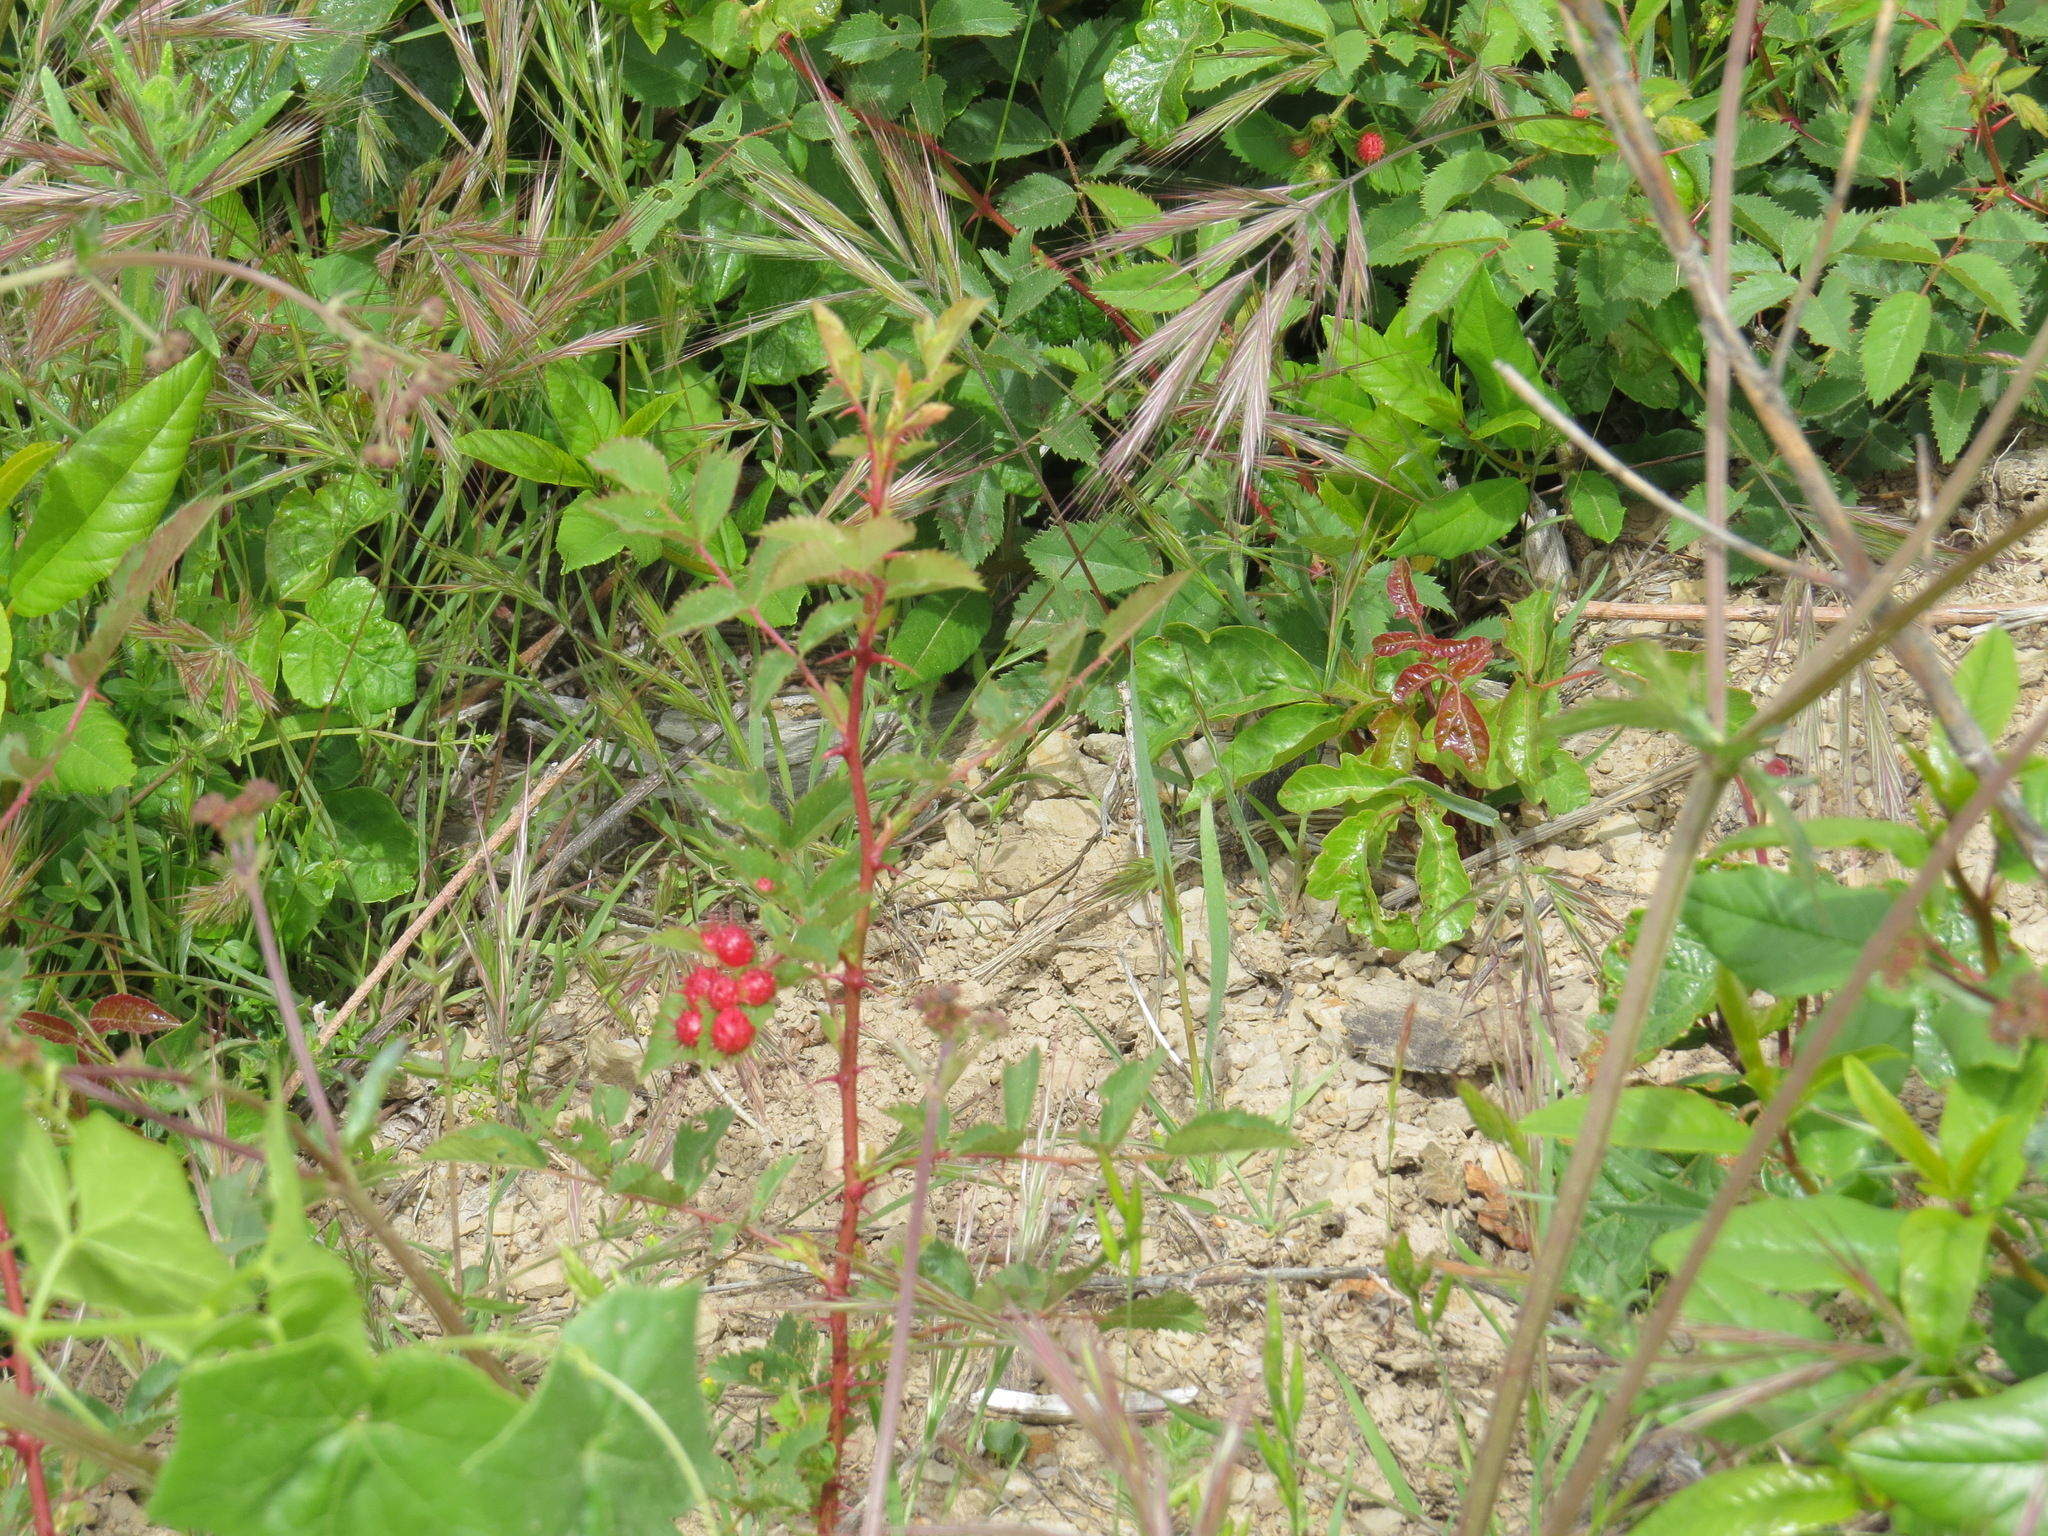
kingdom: Animalia
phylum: Arthropoda
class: Insecta
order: Hymenoptera
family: Cynipidae
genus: Diplolepis
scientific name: Diplolepis polita
